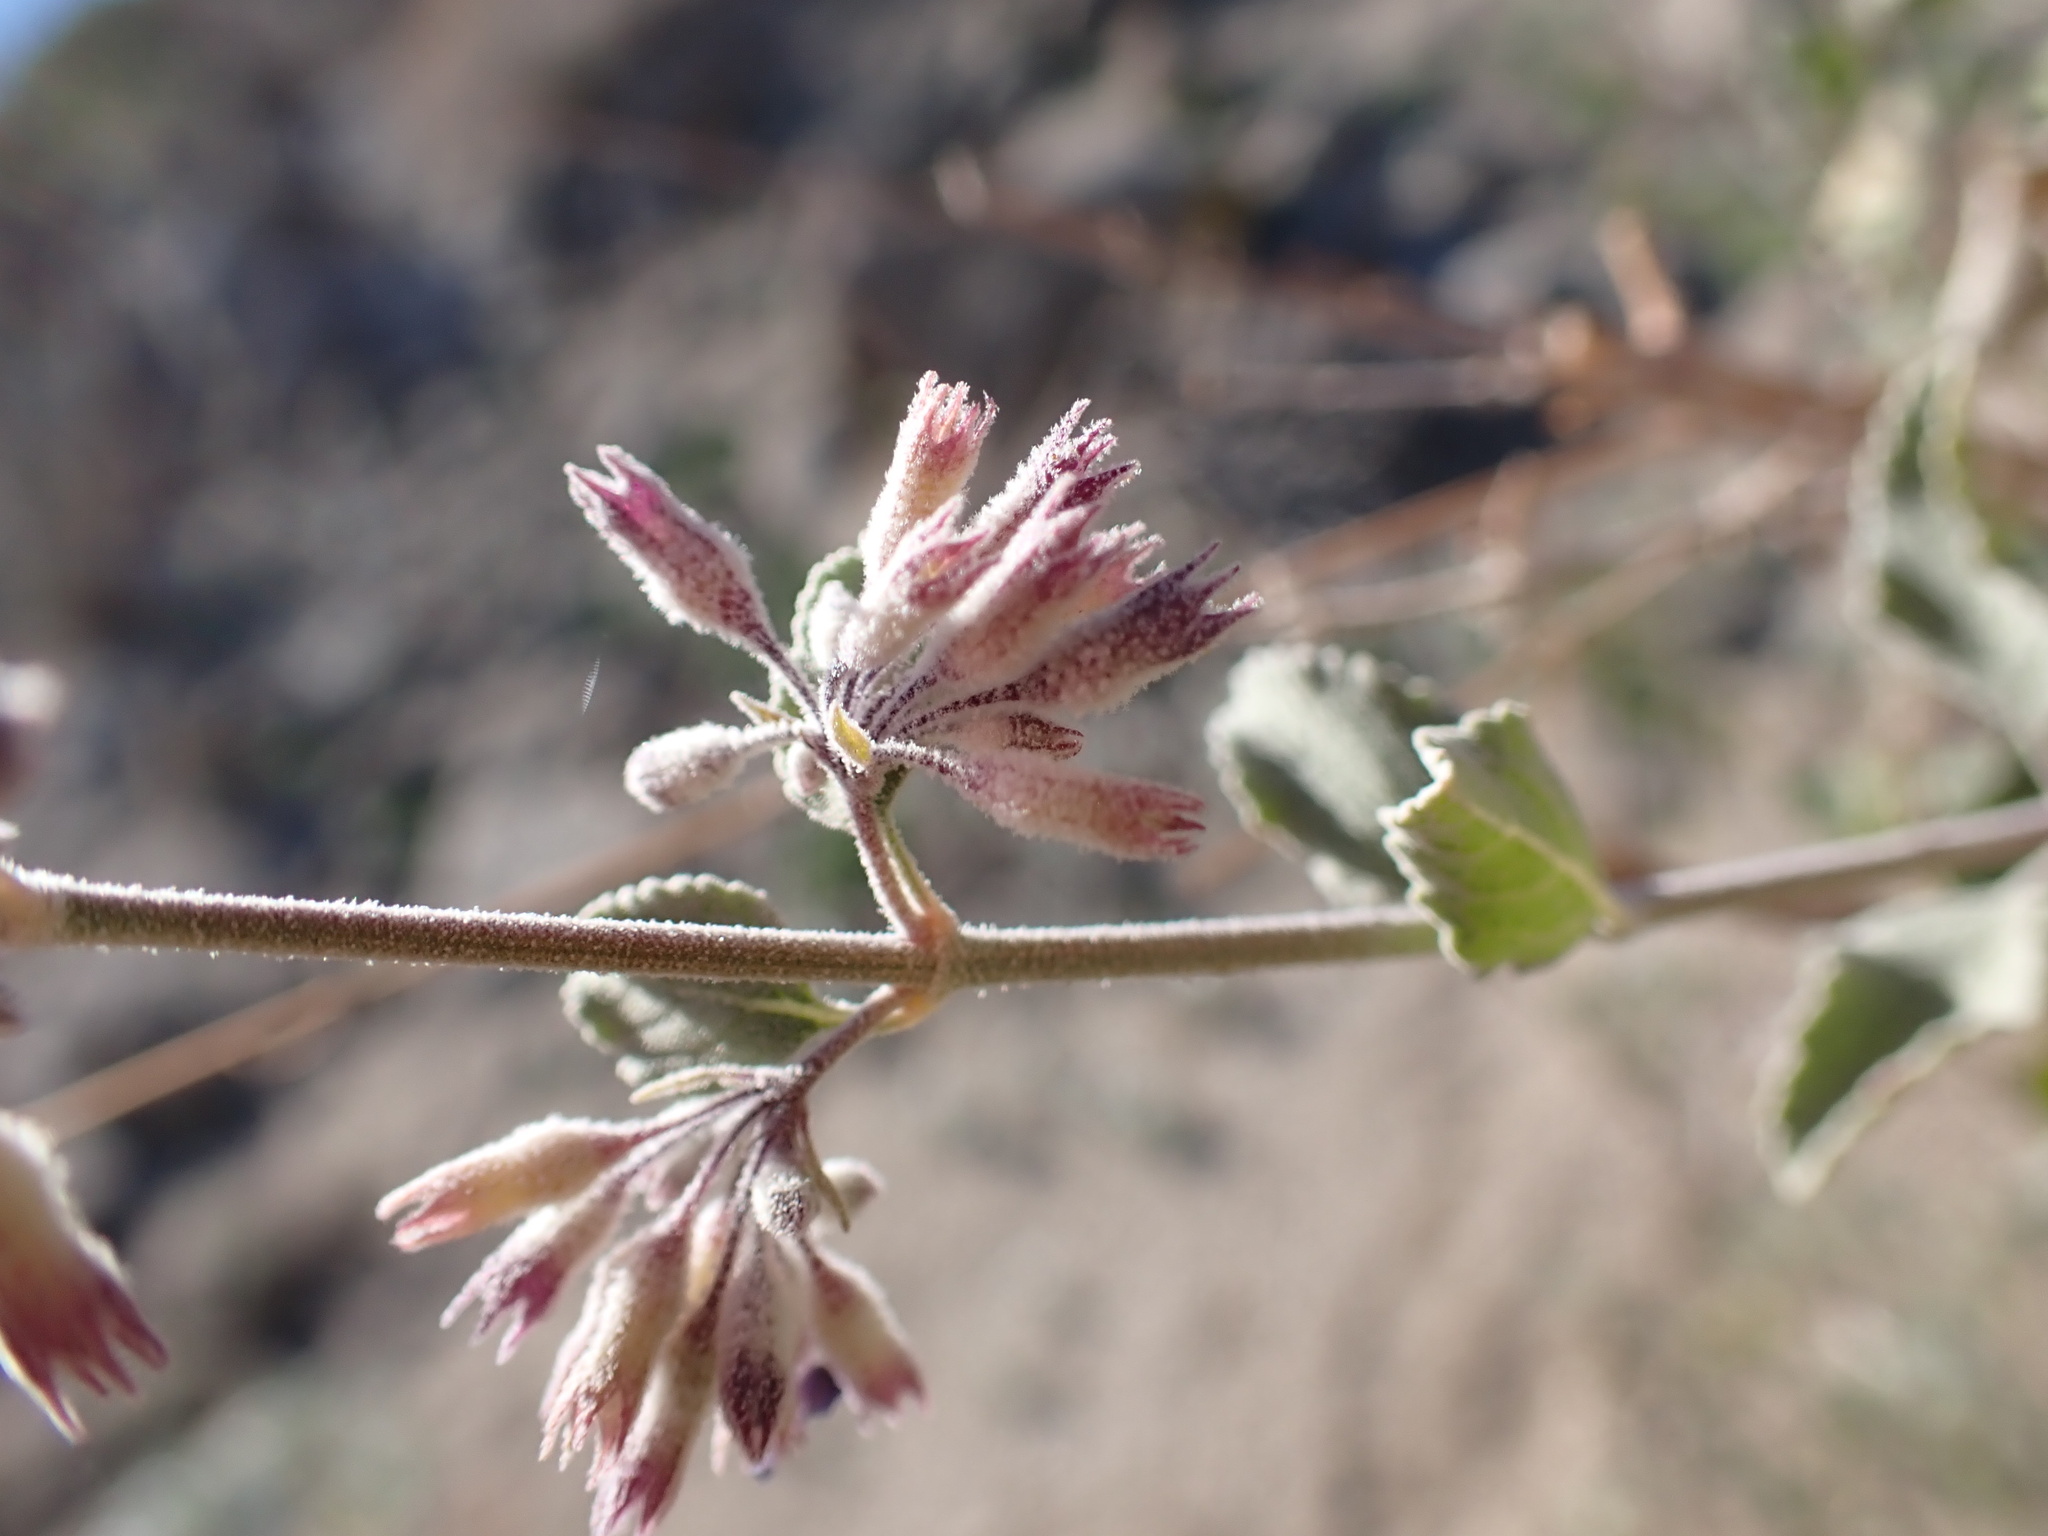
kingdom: Plantae
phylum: Tracheophyta
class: Magnoliopsida
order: Lamiales
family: Lamiaceae
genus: Condea
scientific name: Condea emoryi
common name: Chia
